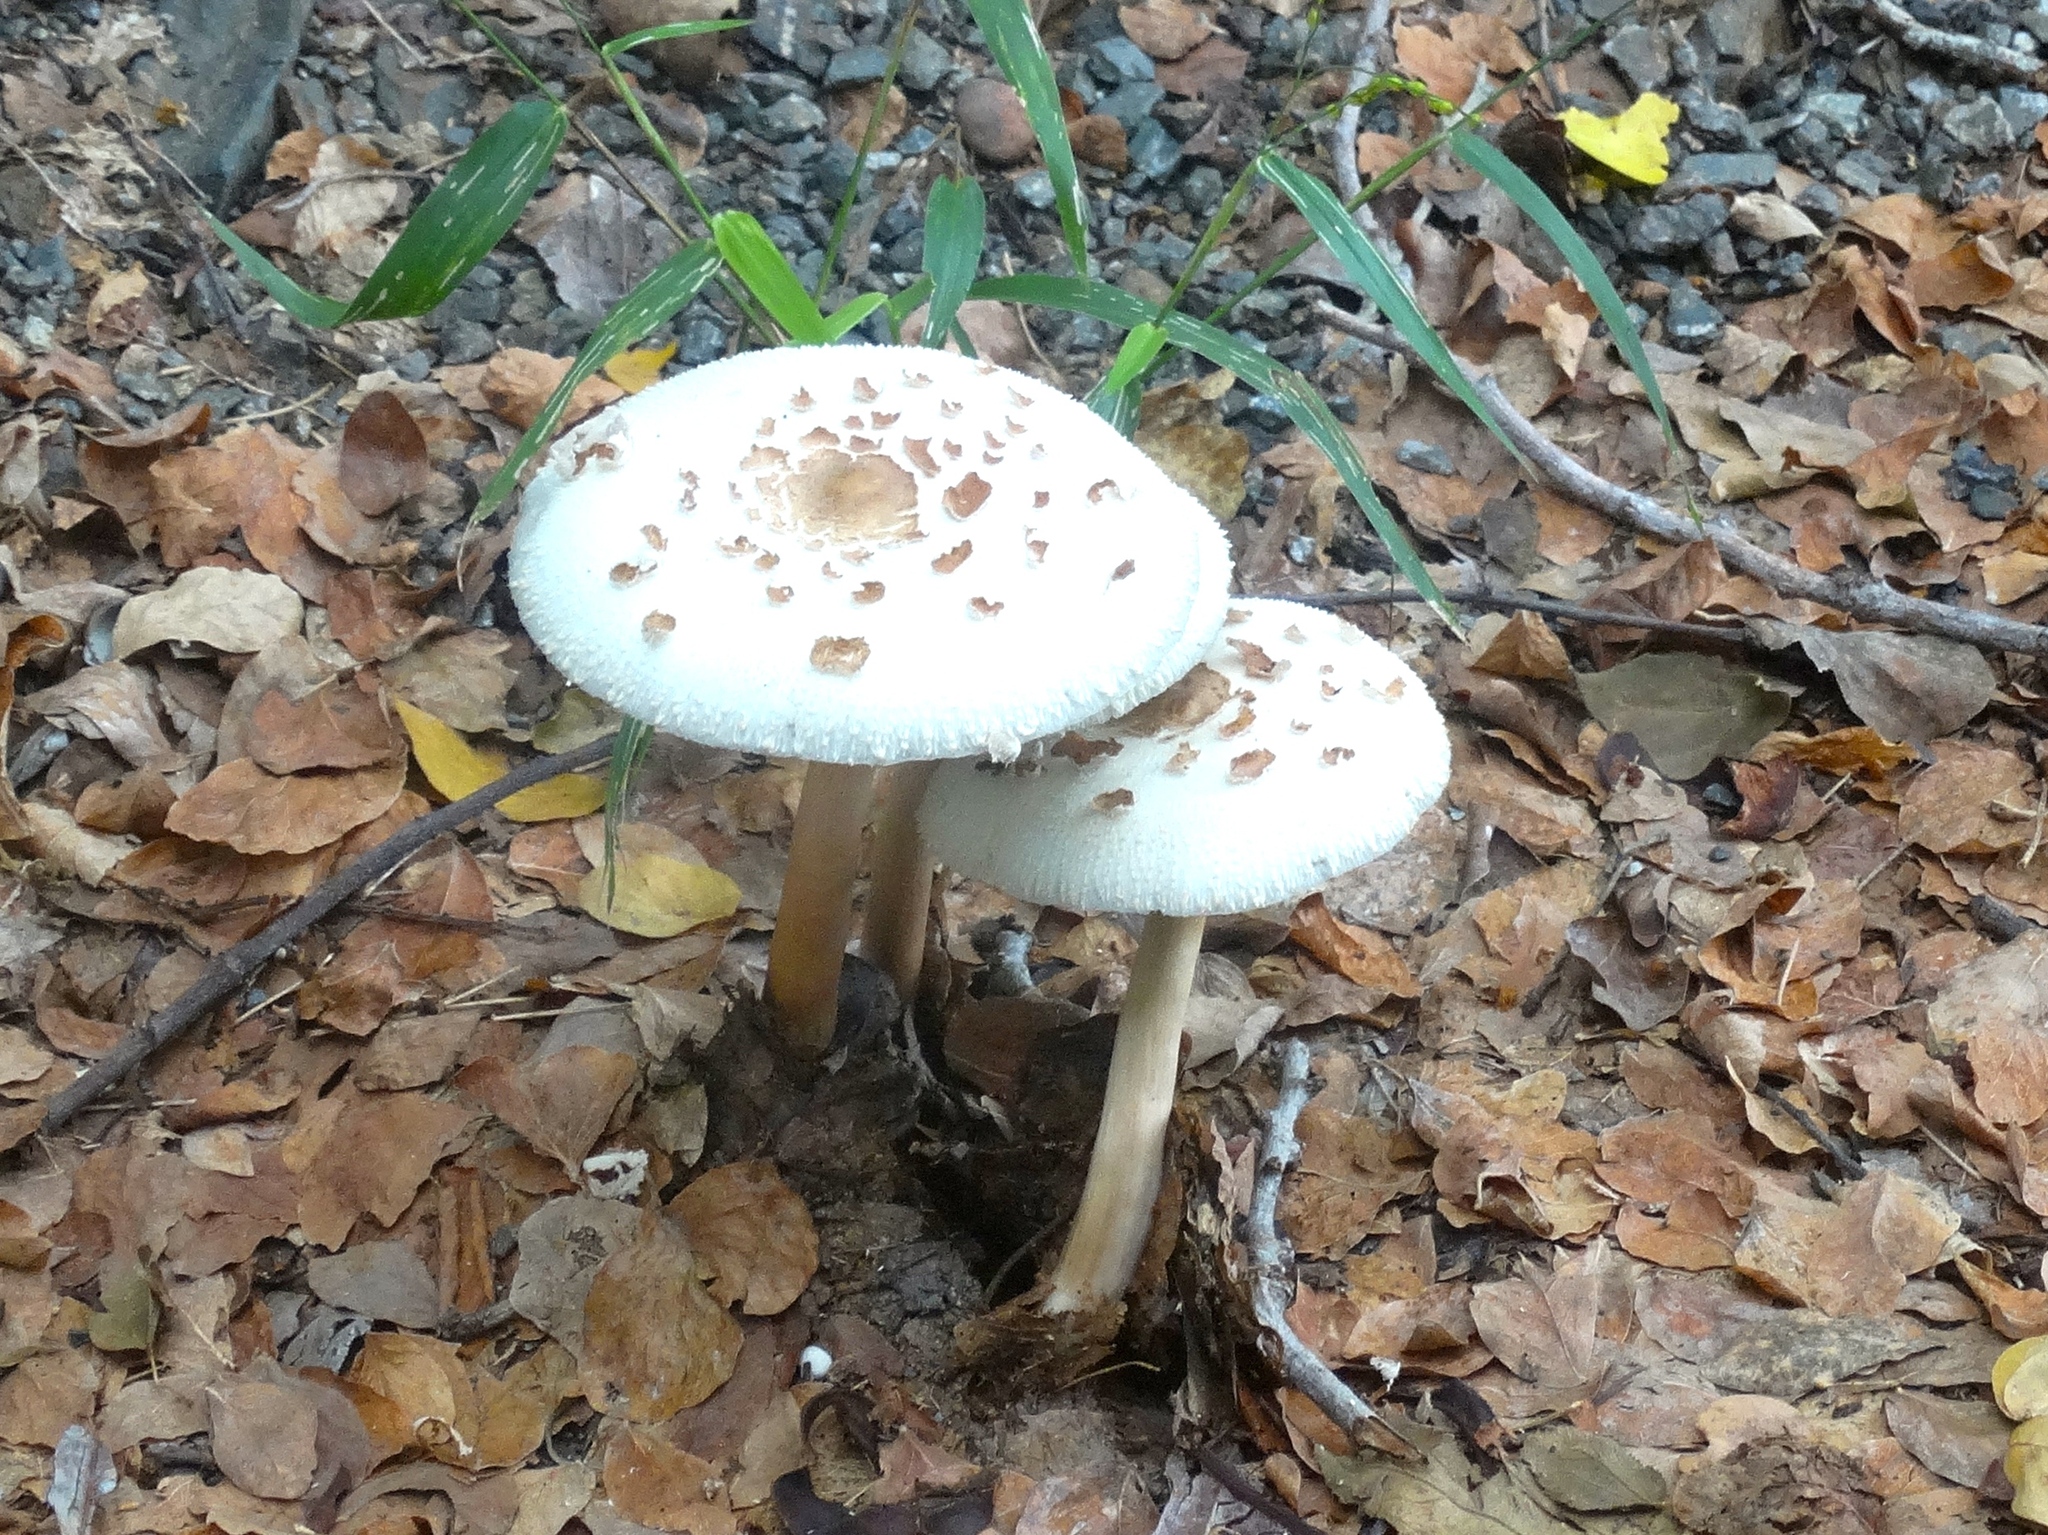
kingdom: Fungi
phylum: Basidiomycota
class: Agaricomycetes
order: Agaricales
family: Agaricaceae
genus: Macrolepiota
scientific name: Macrolepiota
